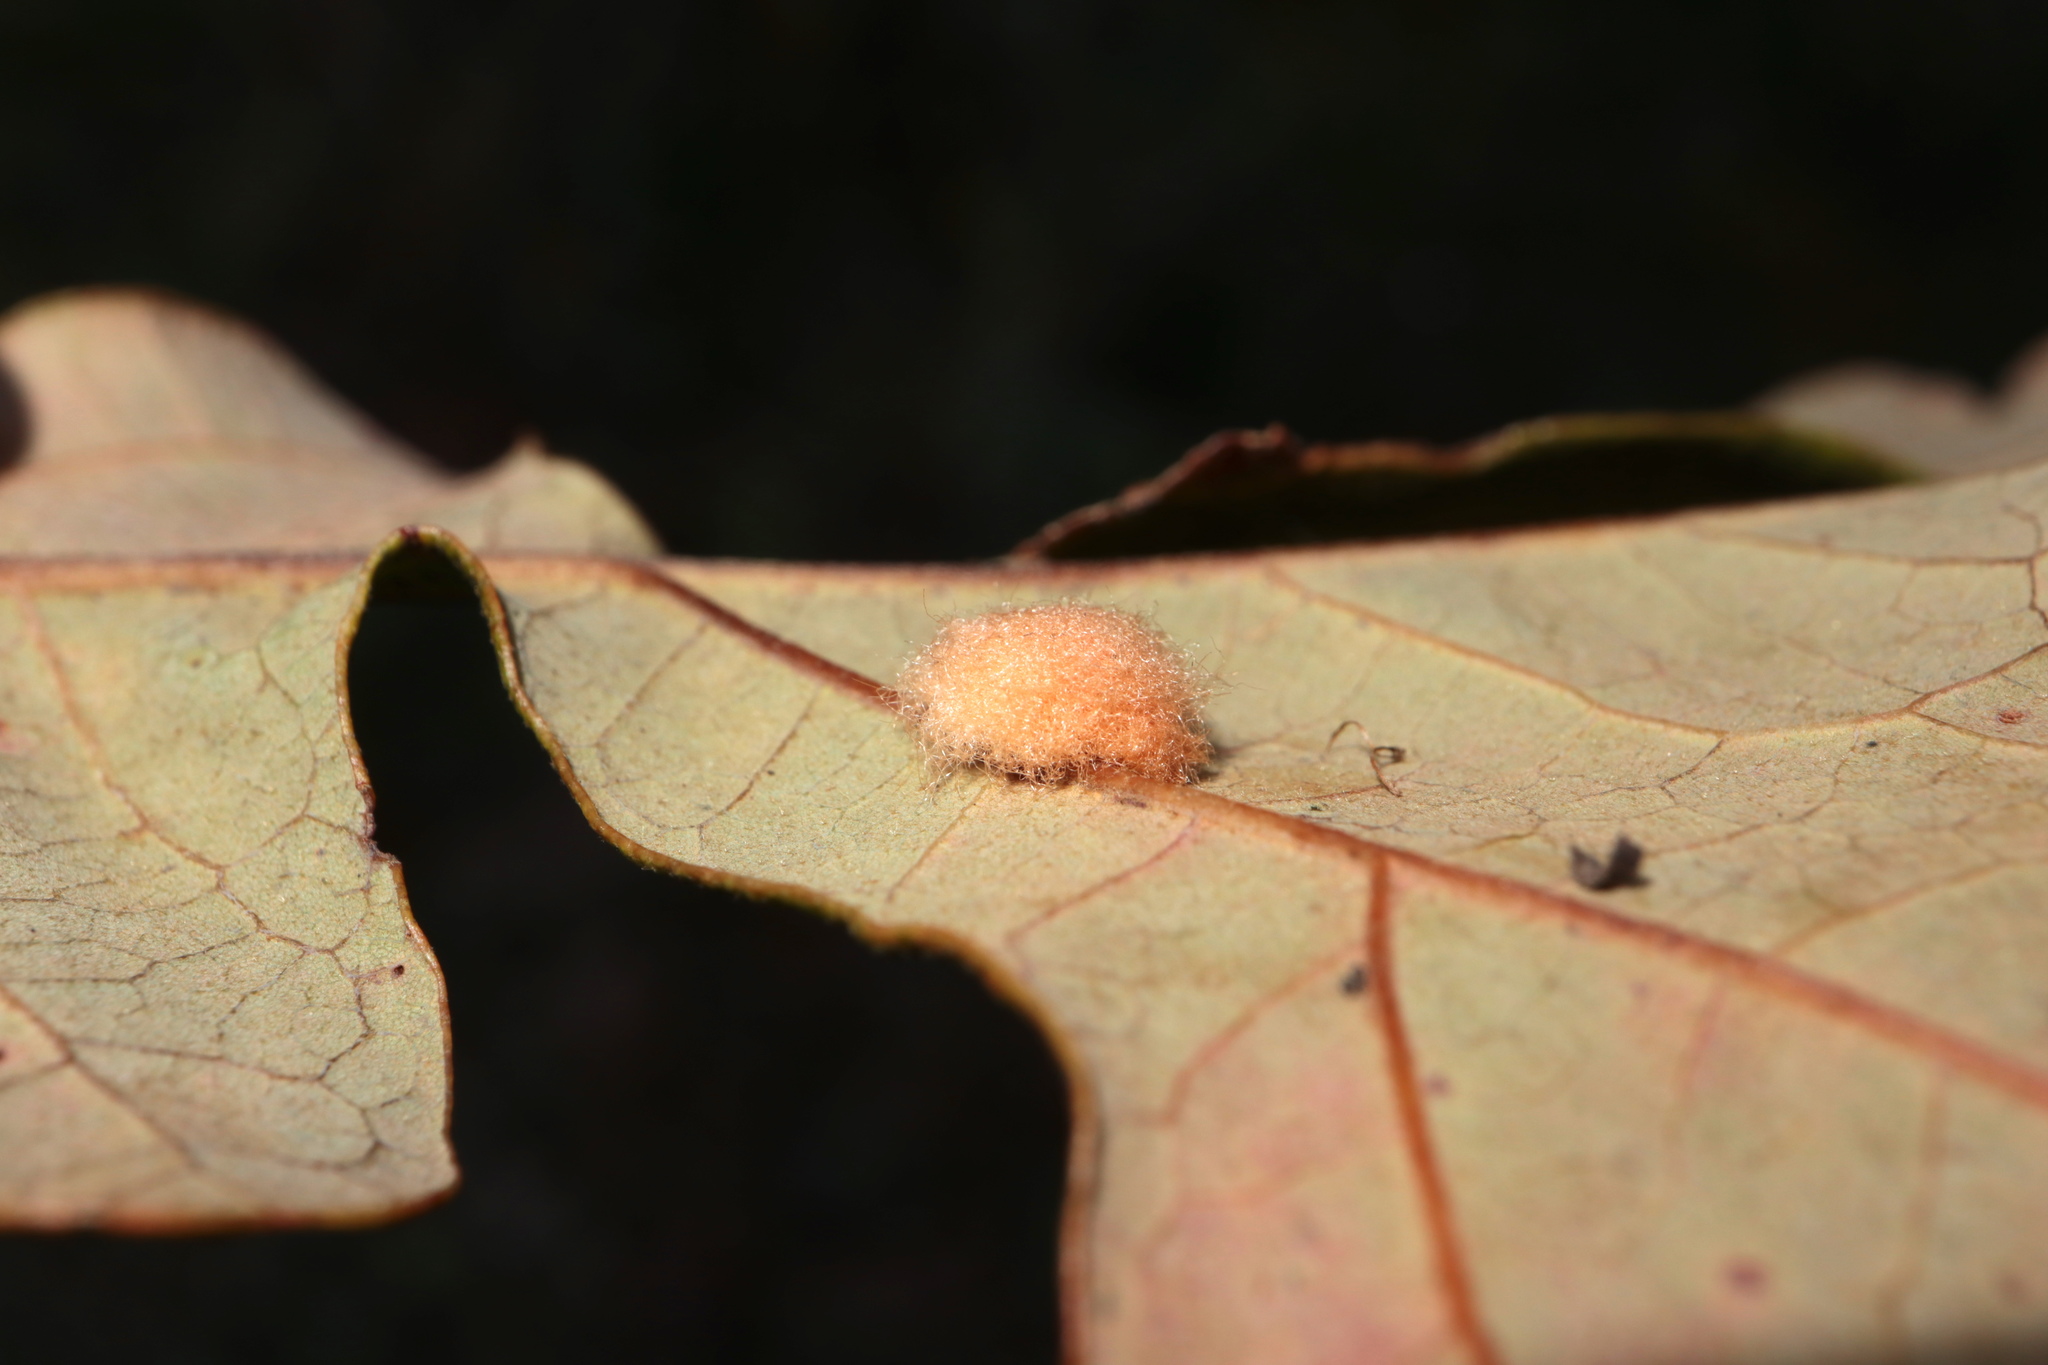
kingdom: Animalia
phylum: Arthropoda
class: Insecta
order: Hymenoptera
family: Cynipidae
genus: Andricus
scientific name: Andricus Druon pattoni
